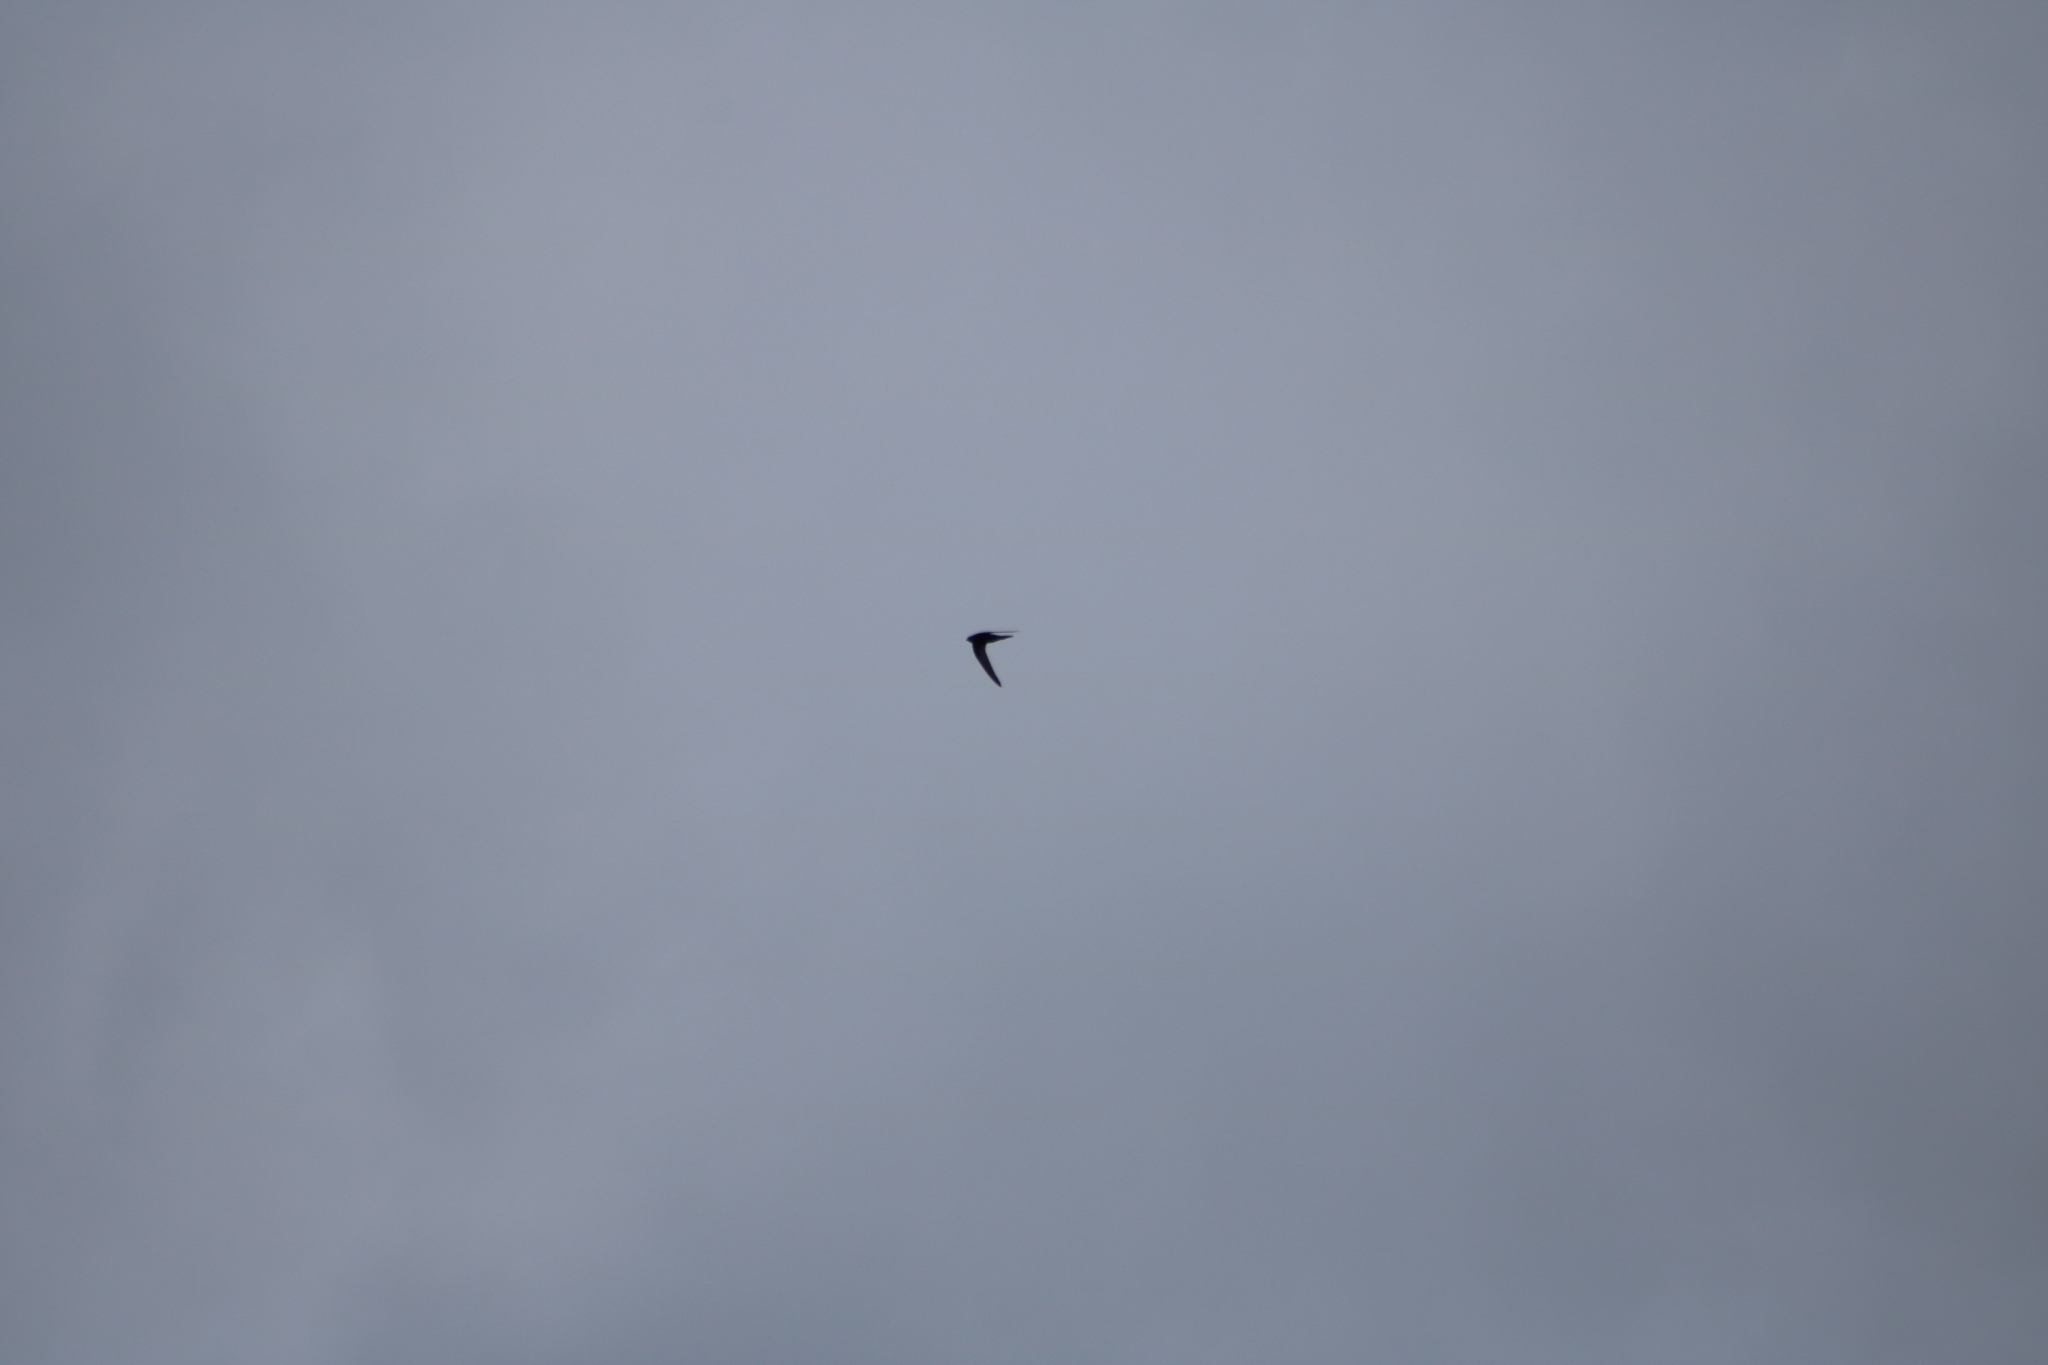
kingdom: Animalia
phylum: Chordata
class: Aves
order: Apodiformes
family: Apodidae
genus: Apus
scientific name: Apus apus
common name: Common swift
